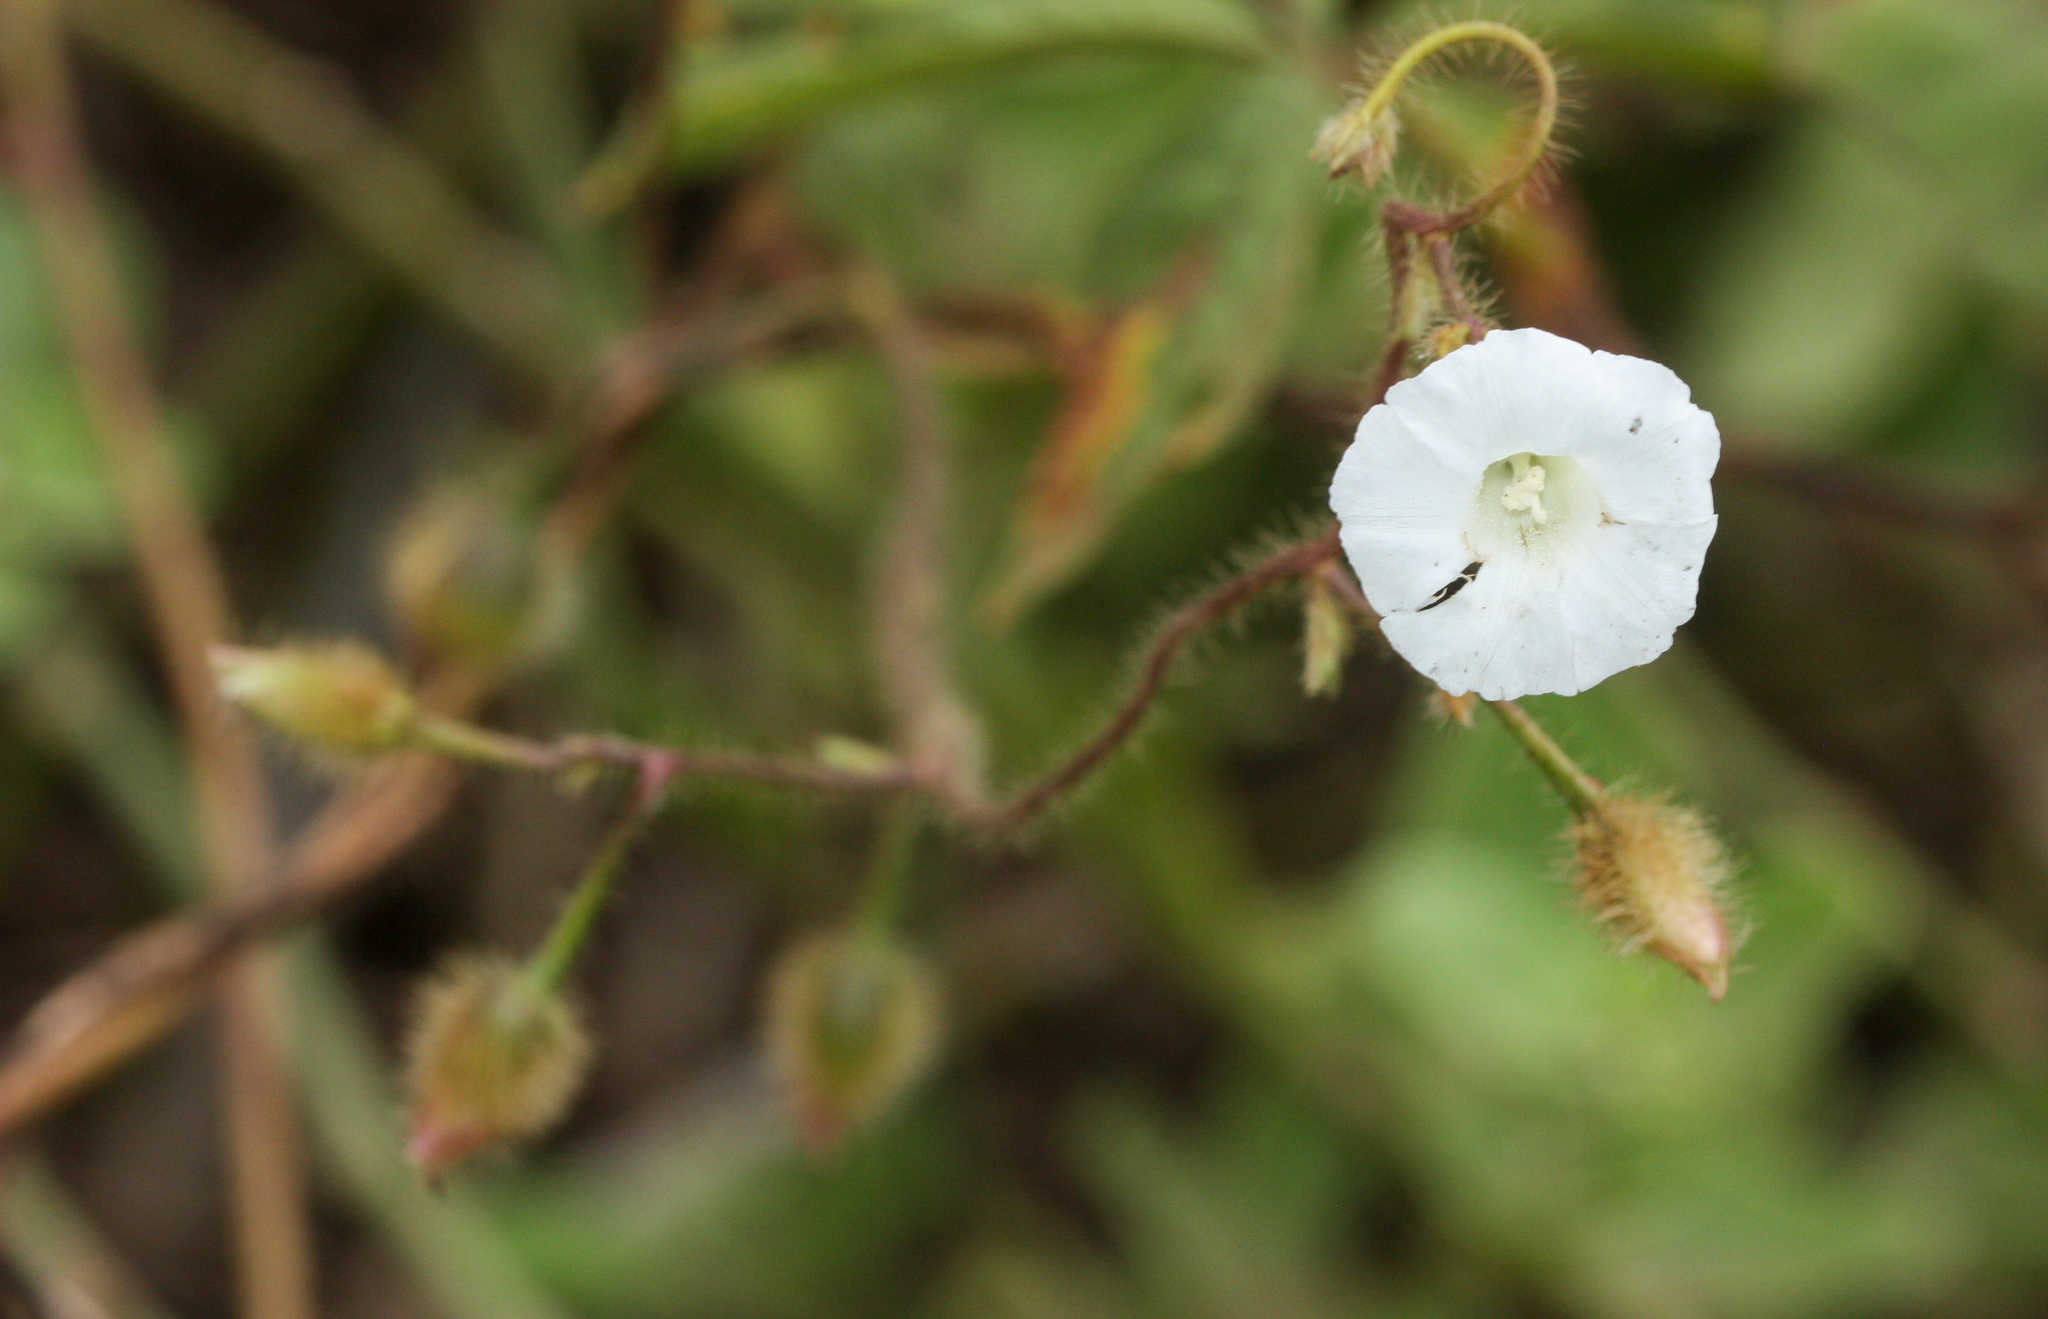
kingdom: Plantae
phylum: Tracheophyta
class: Magnoliopsida
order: Solanales
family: Convolvulaceae
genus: Distimake
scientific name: Distimake aegyptius
